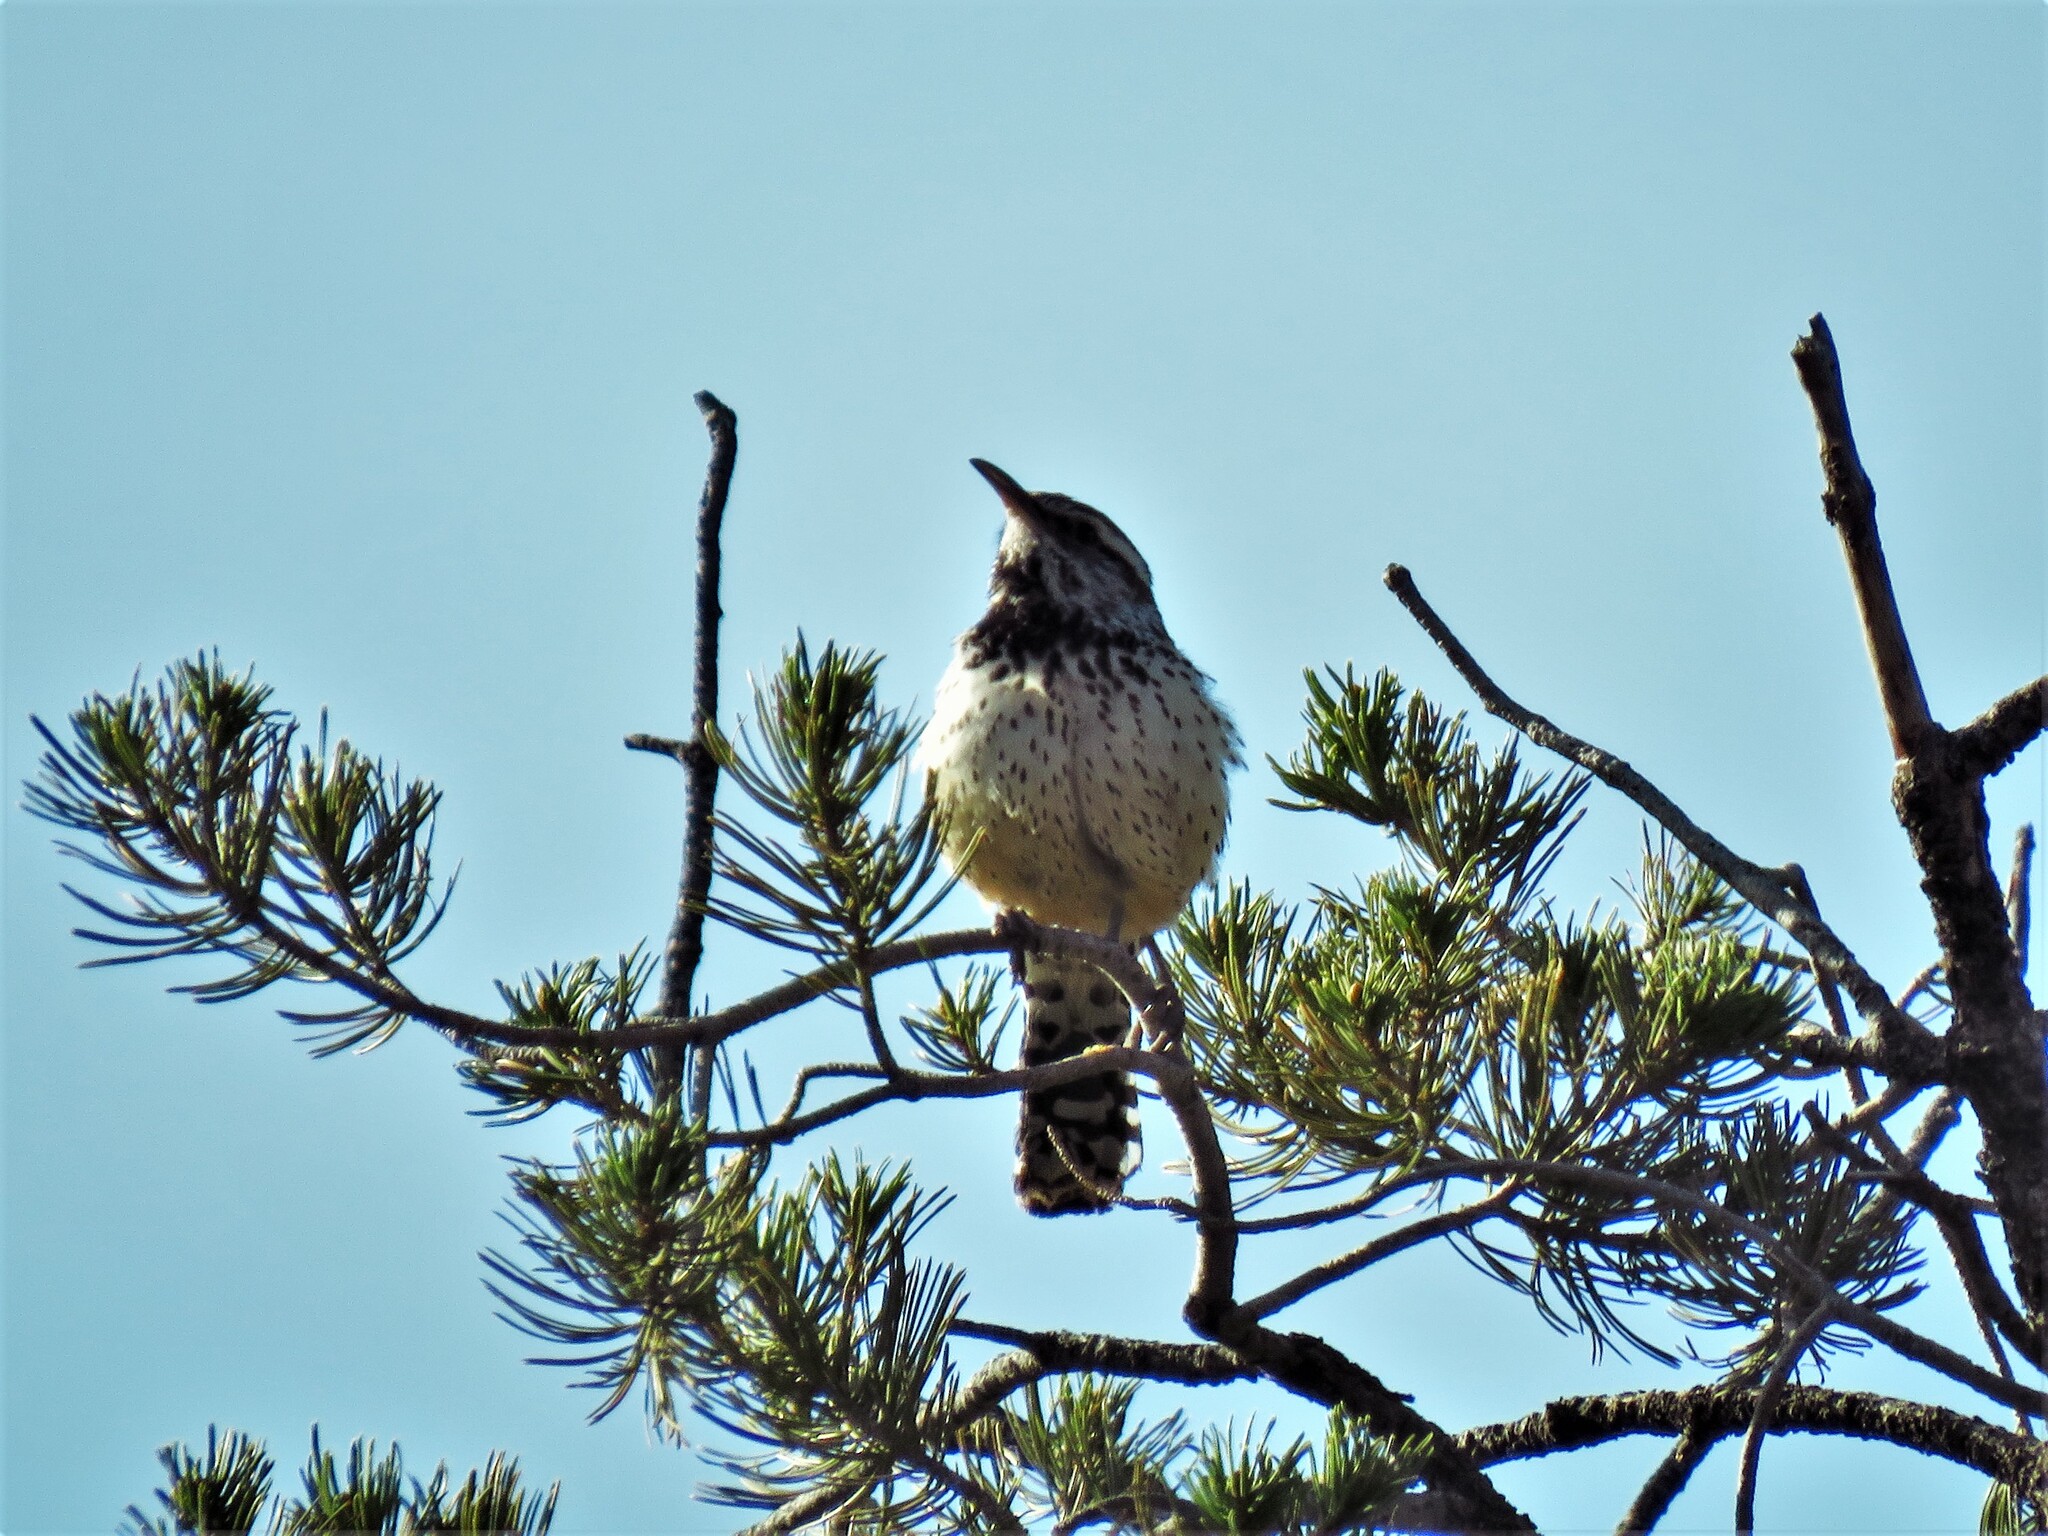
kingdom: Animalia
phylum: Chordata
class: Aves
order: Passeriformes
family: Troglodytidae
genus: Campylorhynchus
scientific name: Campylorhynchus brunneicapillus
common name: Cactus wren
